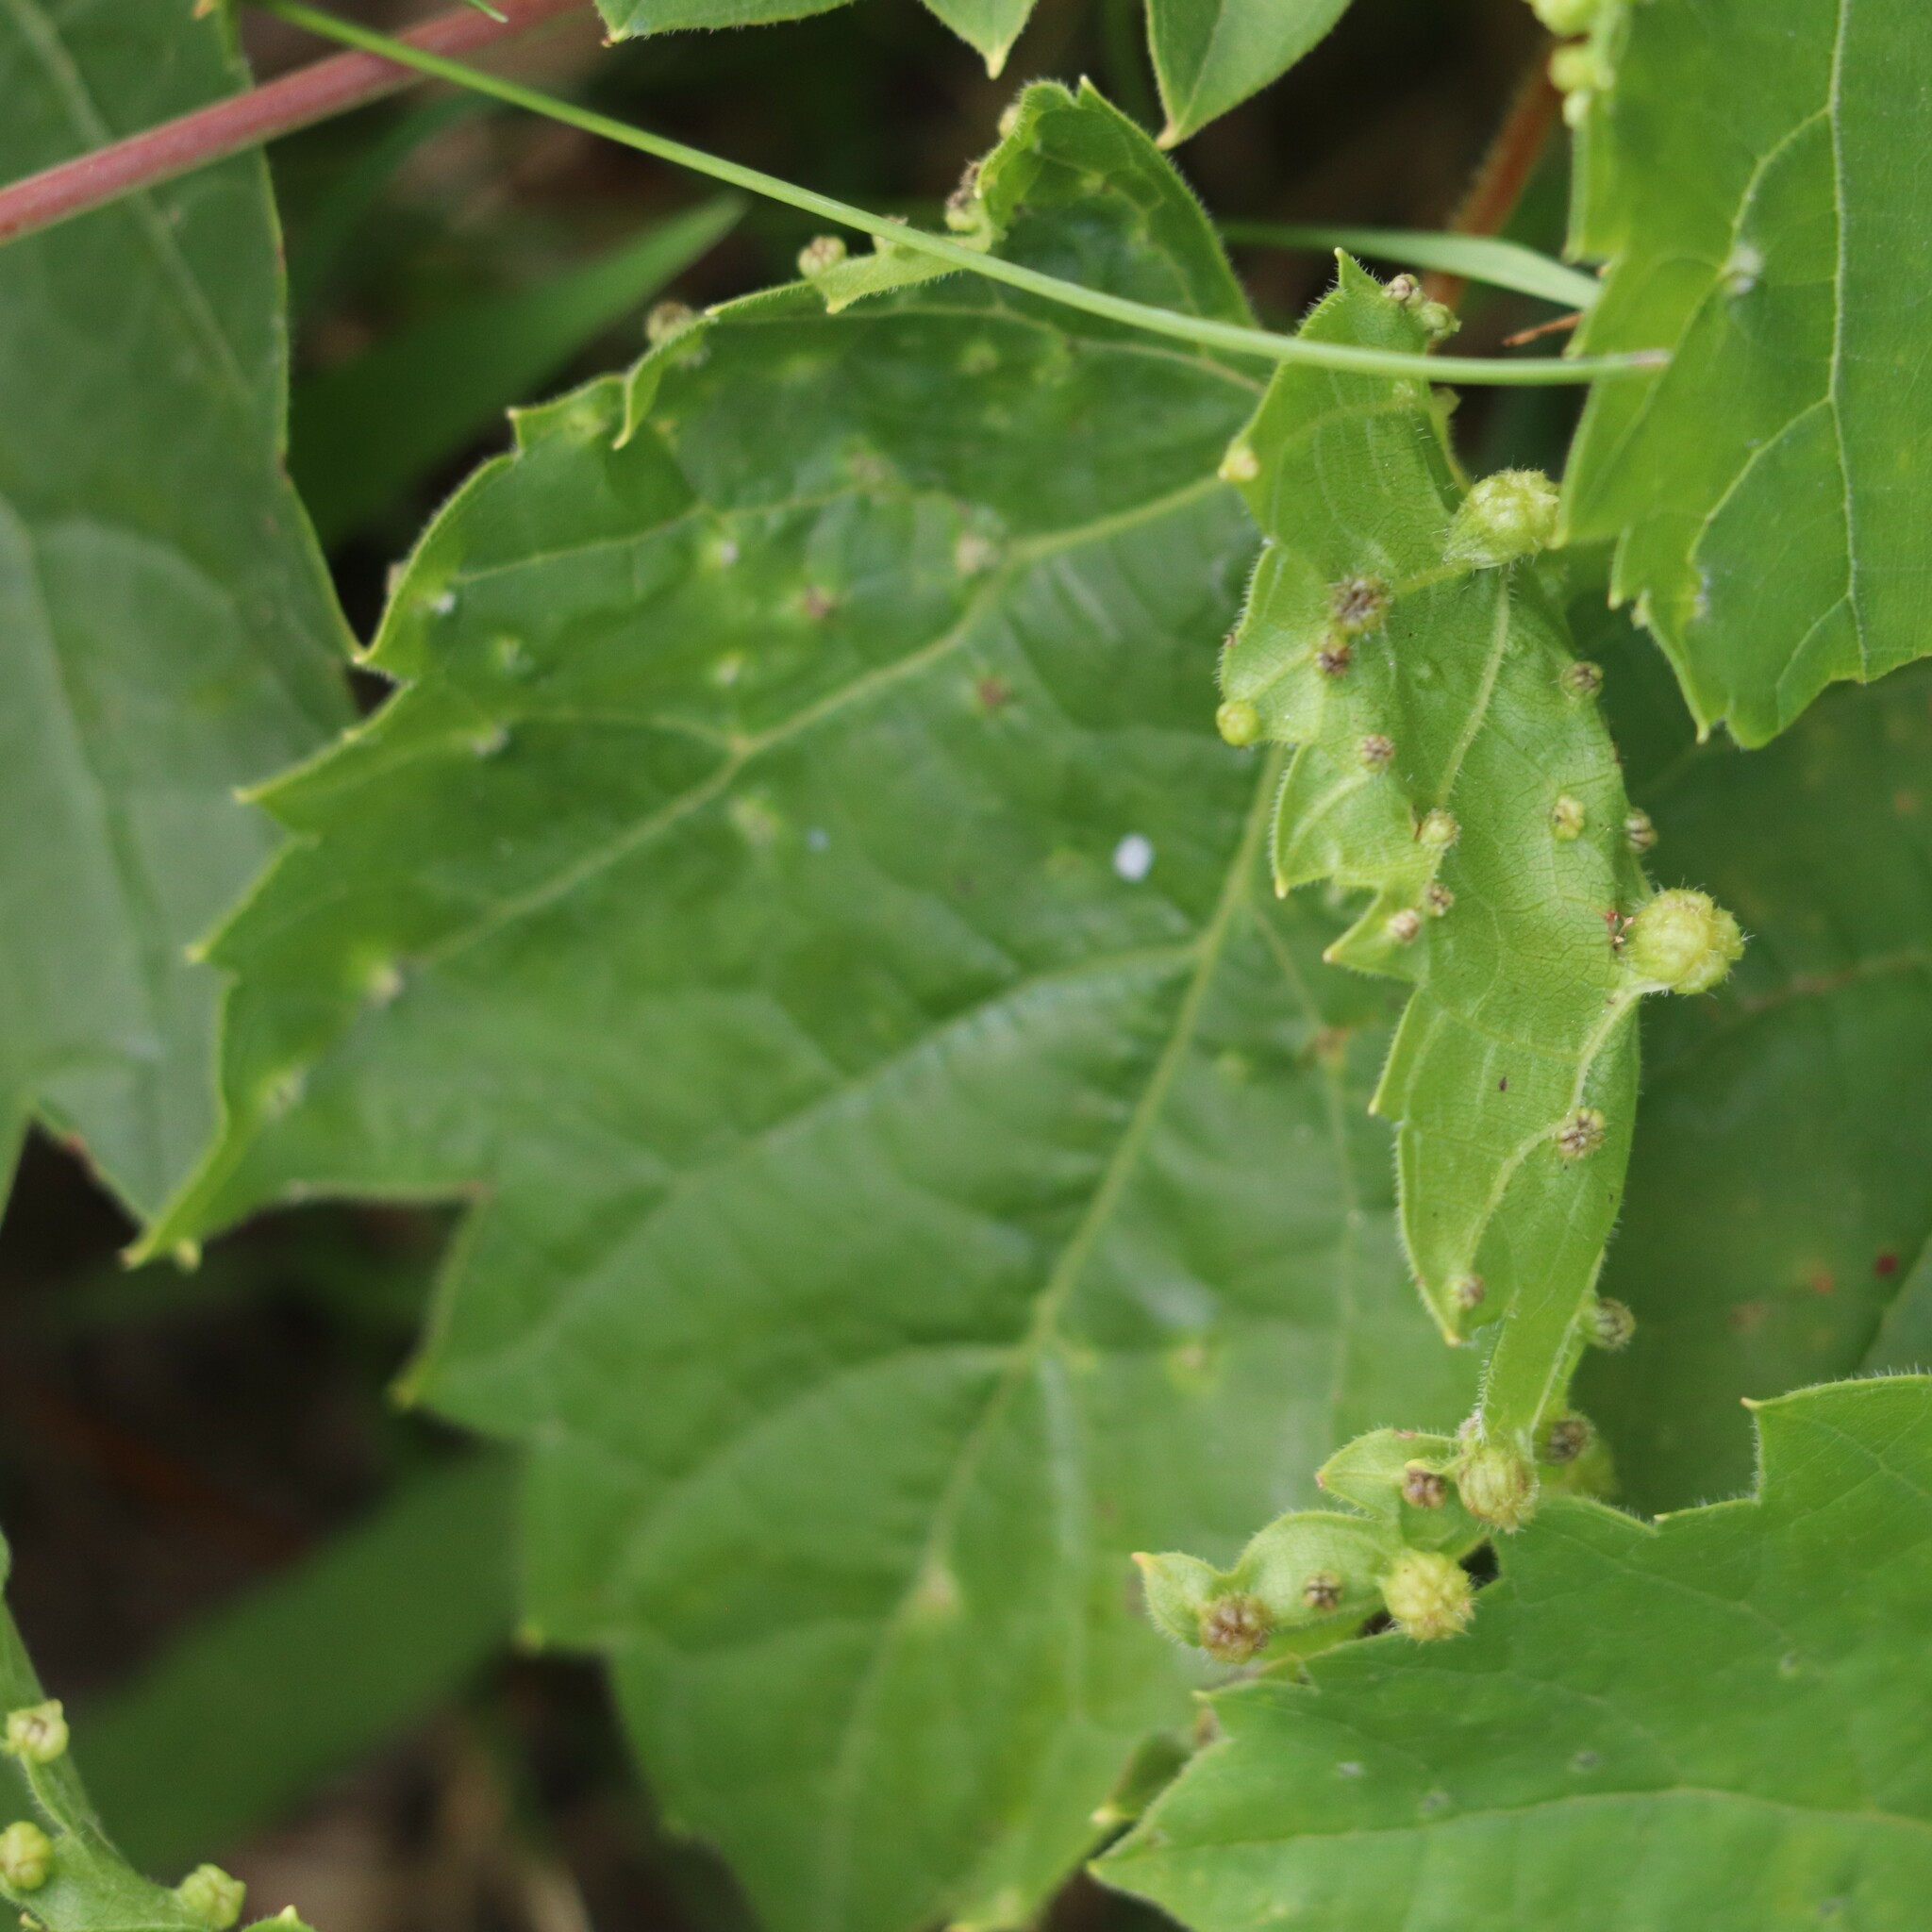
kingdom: Animalia
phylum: Arthropoda
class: Insecta
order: Hemiptera
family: Phylloxeridae
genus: Daktulosphaira
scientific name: Daktulosphaira vitifoliae
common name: Grape phylloxera
